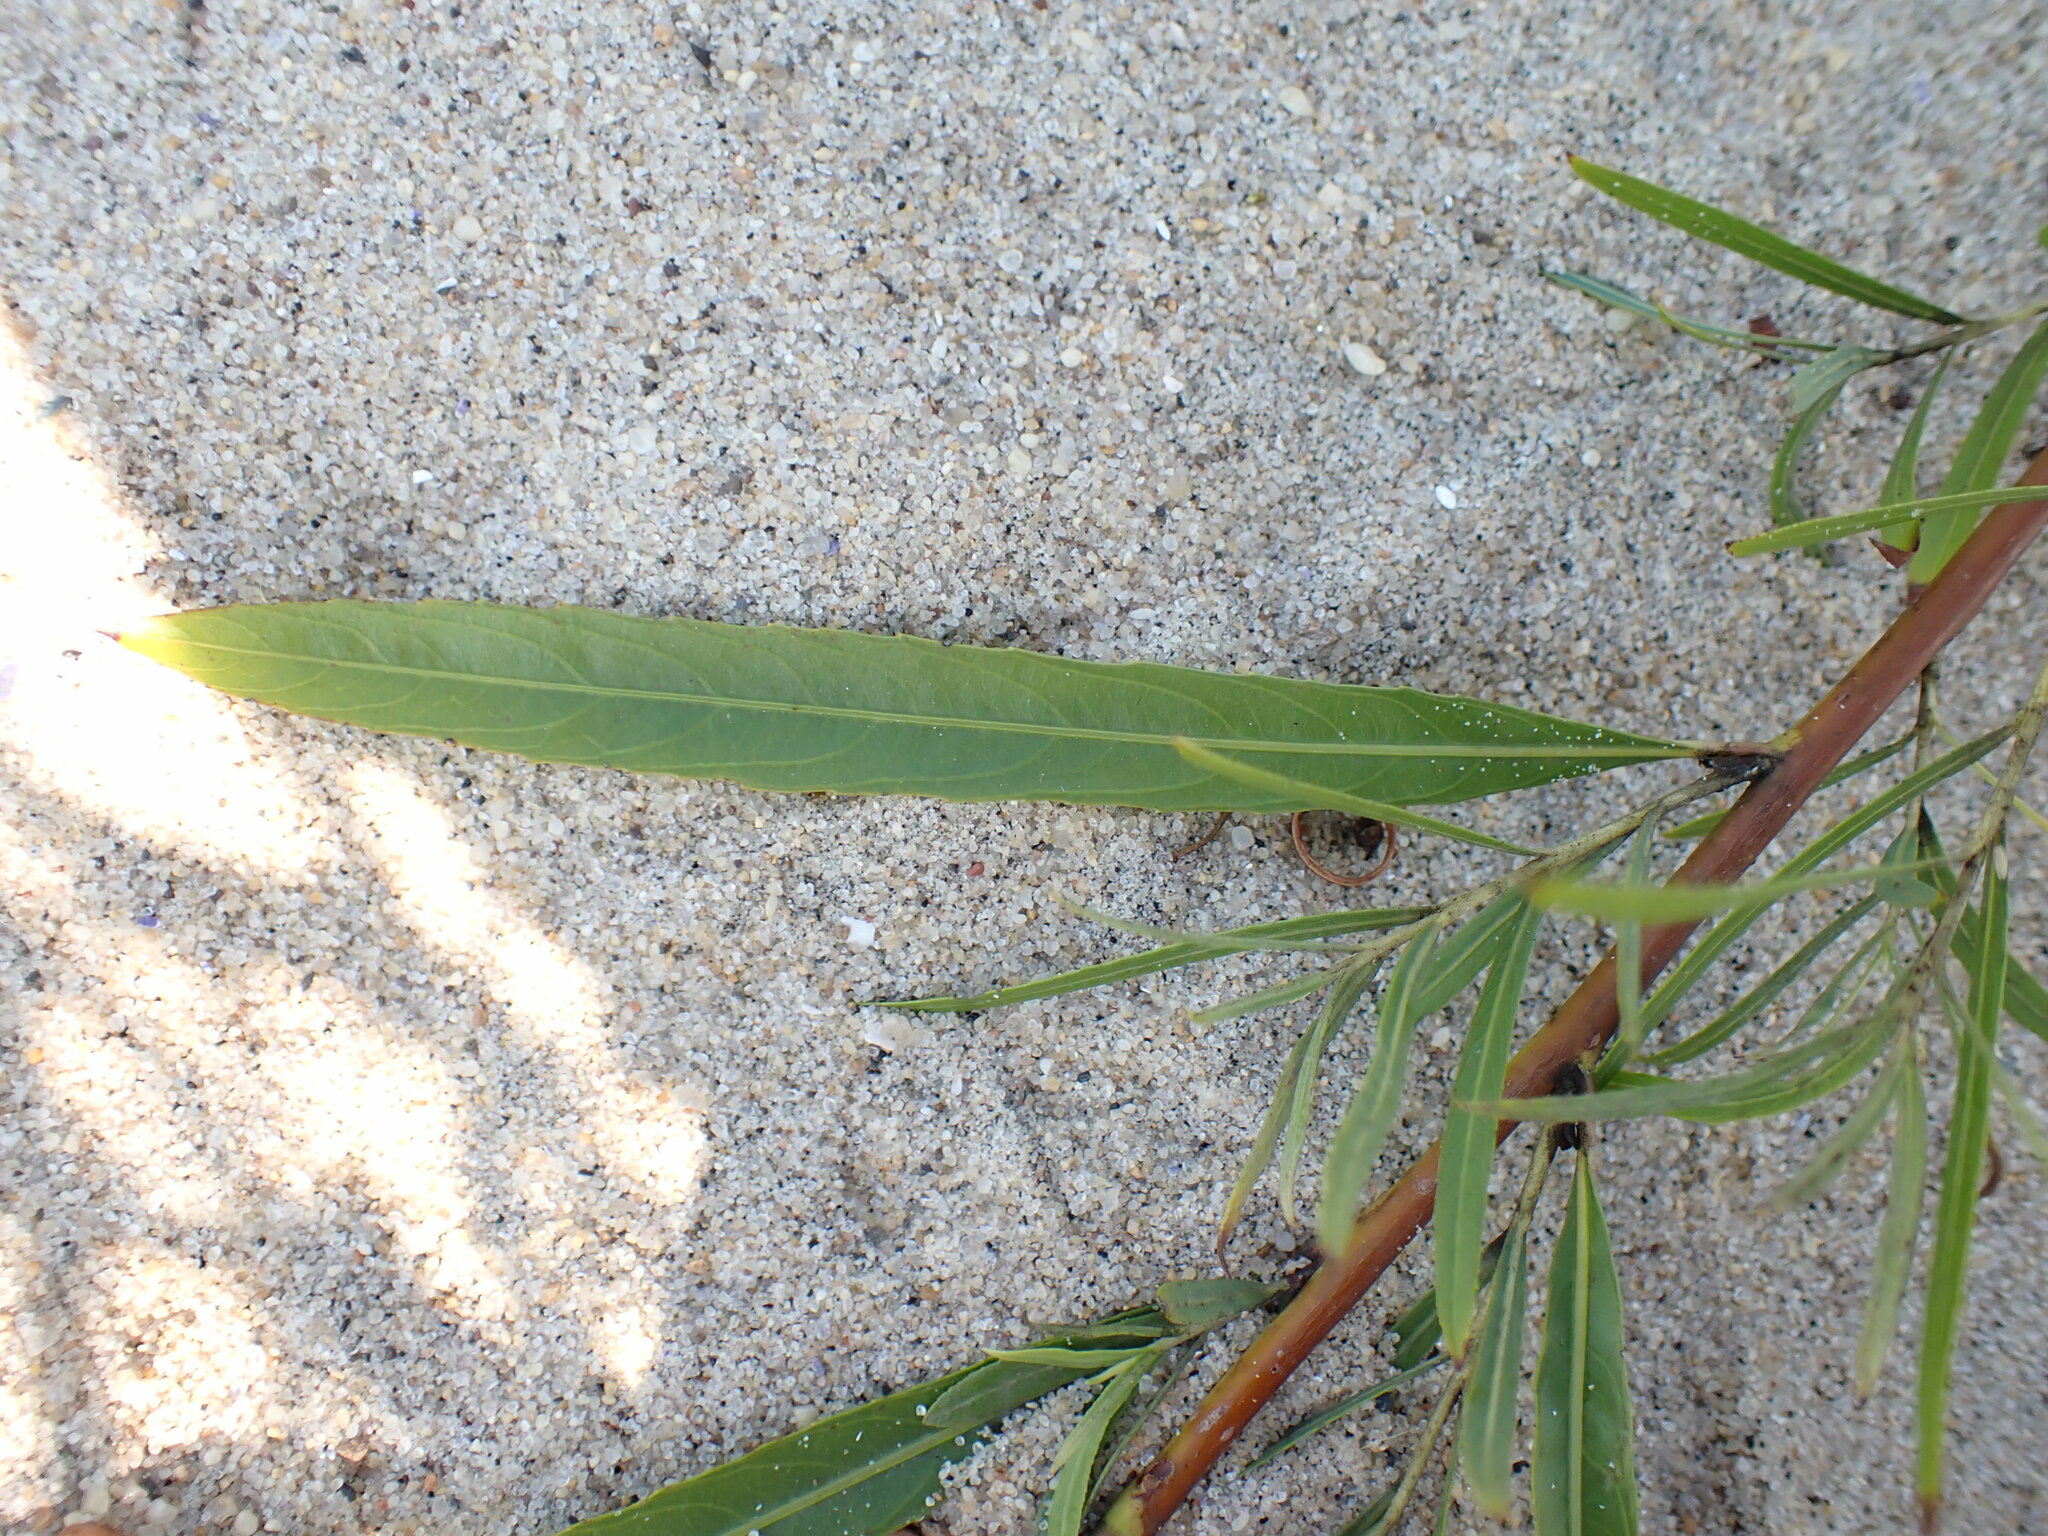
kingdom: Plantae
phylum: Tracheophyta
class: Magnoliopsida
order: Malpighiales
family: Salicaceae
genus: Salix
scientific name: Salix interior
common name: Sandbar willow
